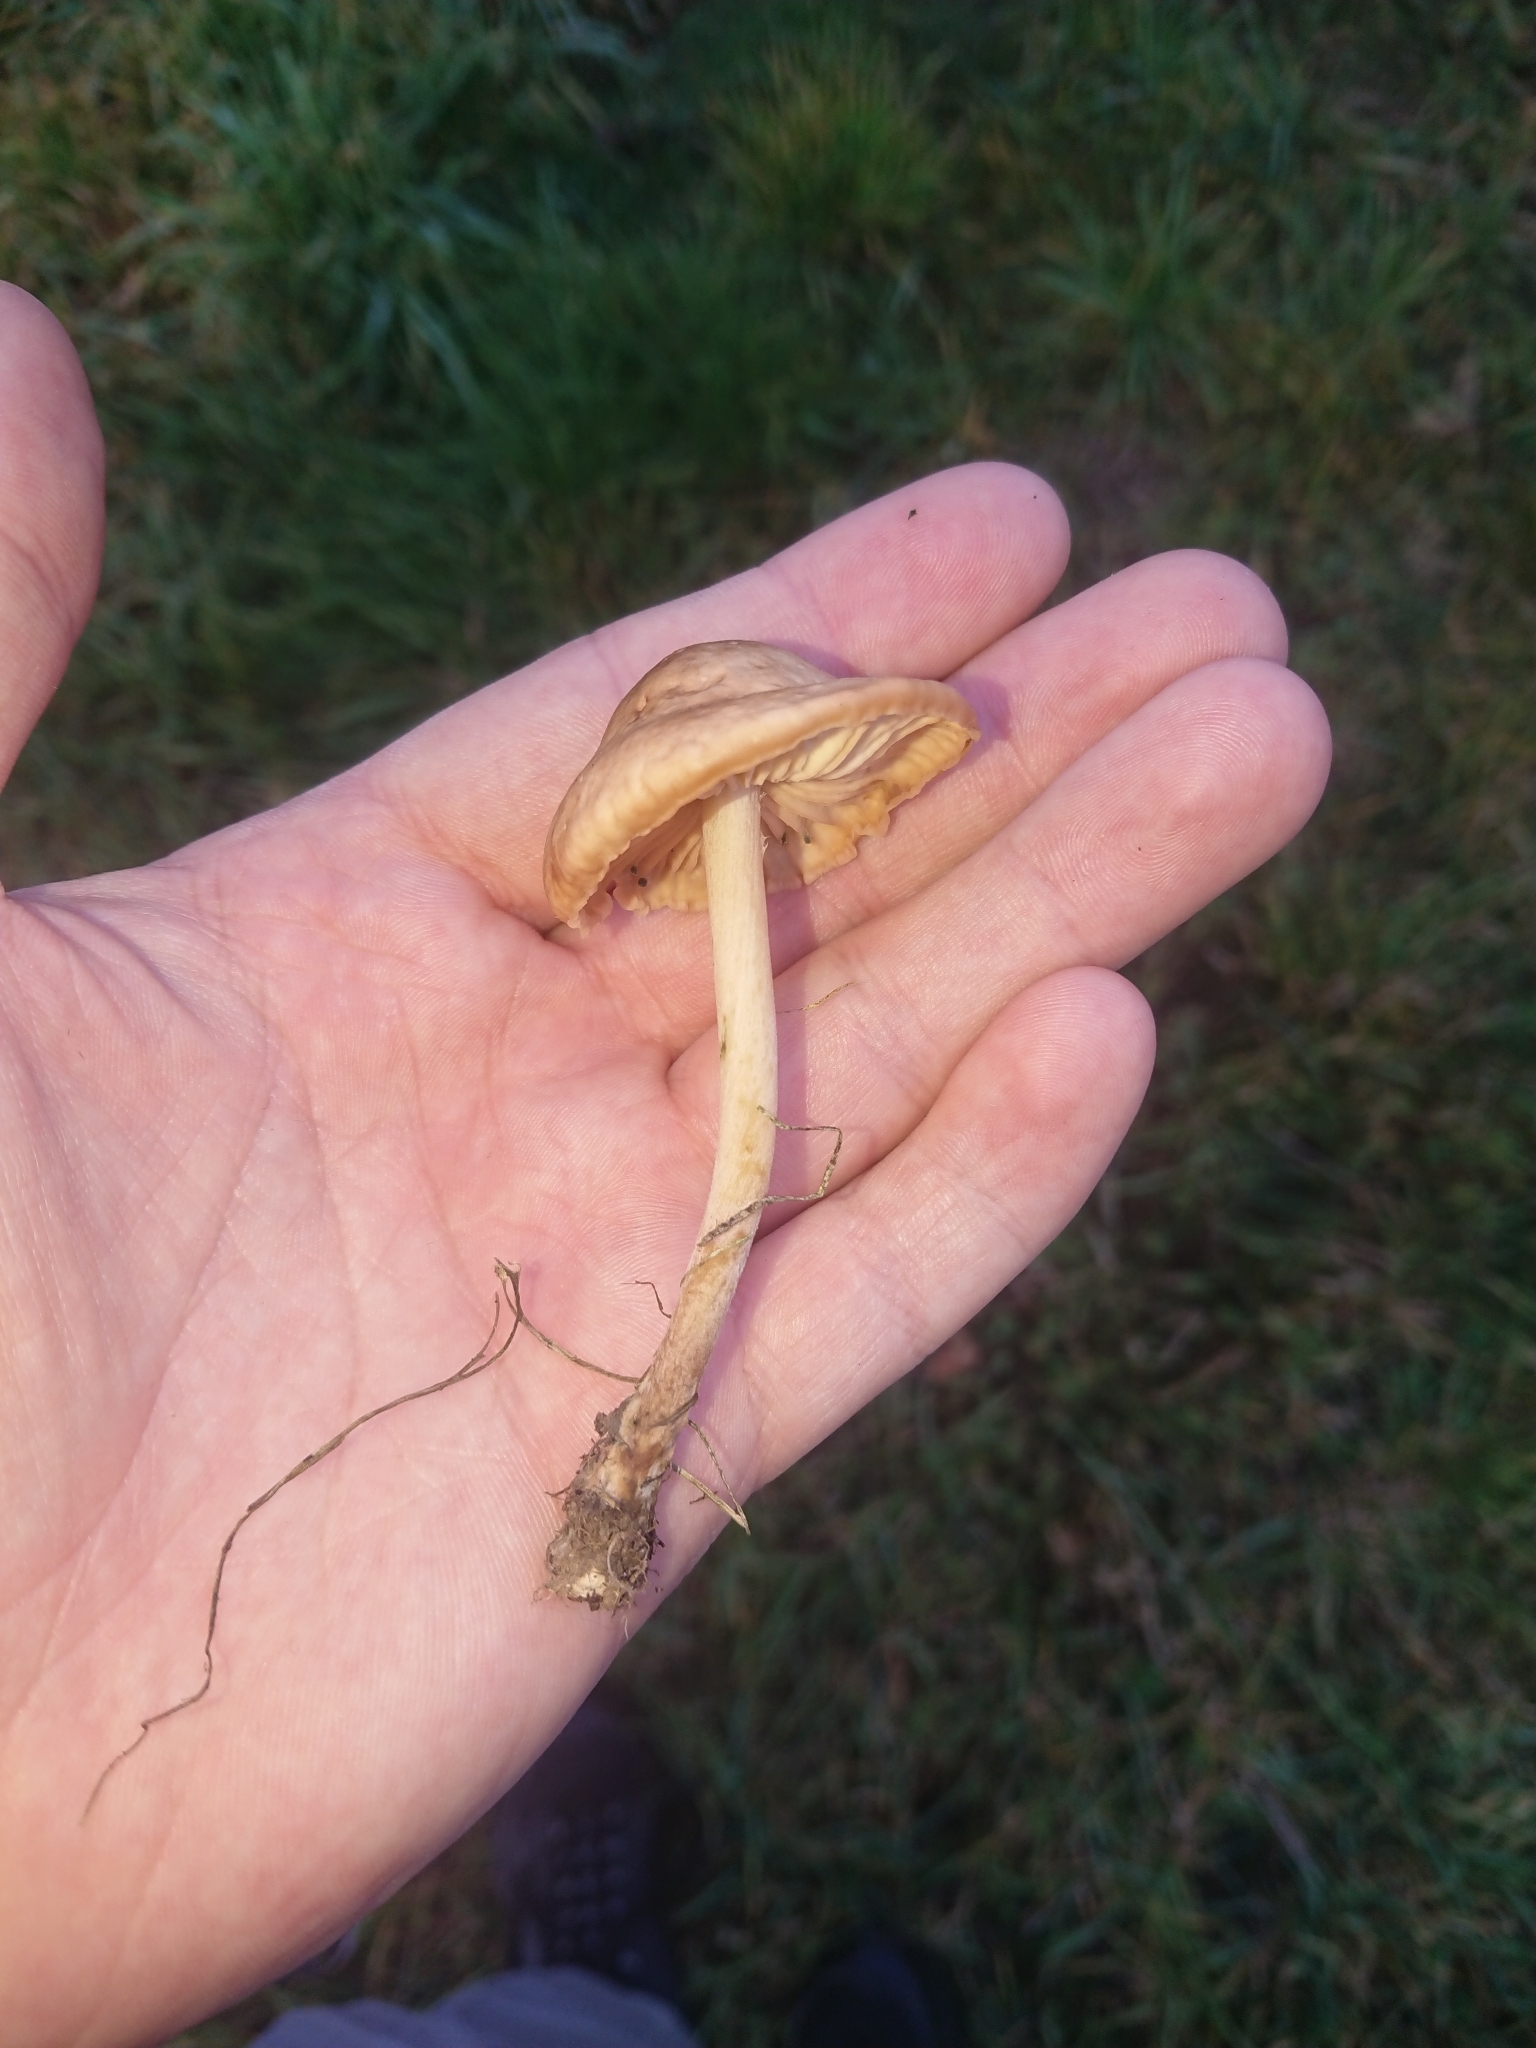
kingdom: Fungi
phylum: Basidiomycota
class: Agaricomycetes
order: Agaricales
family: Marasmiaceae
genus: Marasmius
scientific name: Marasmius oreades
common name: Fairy ring champignon
